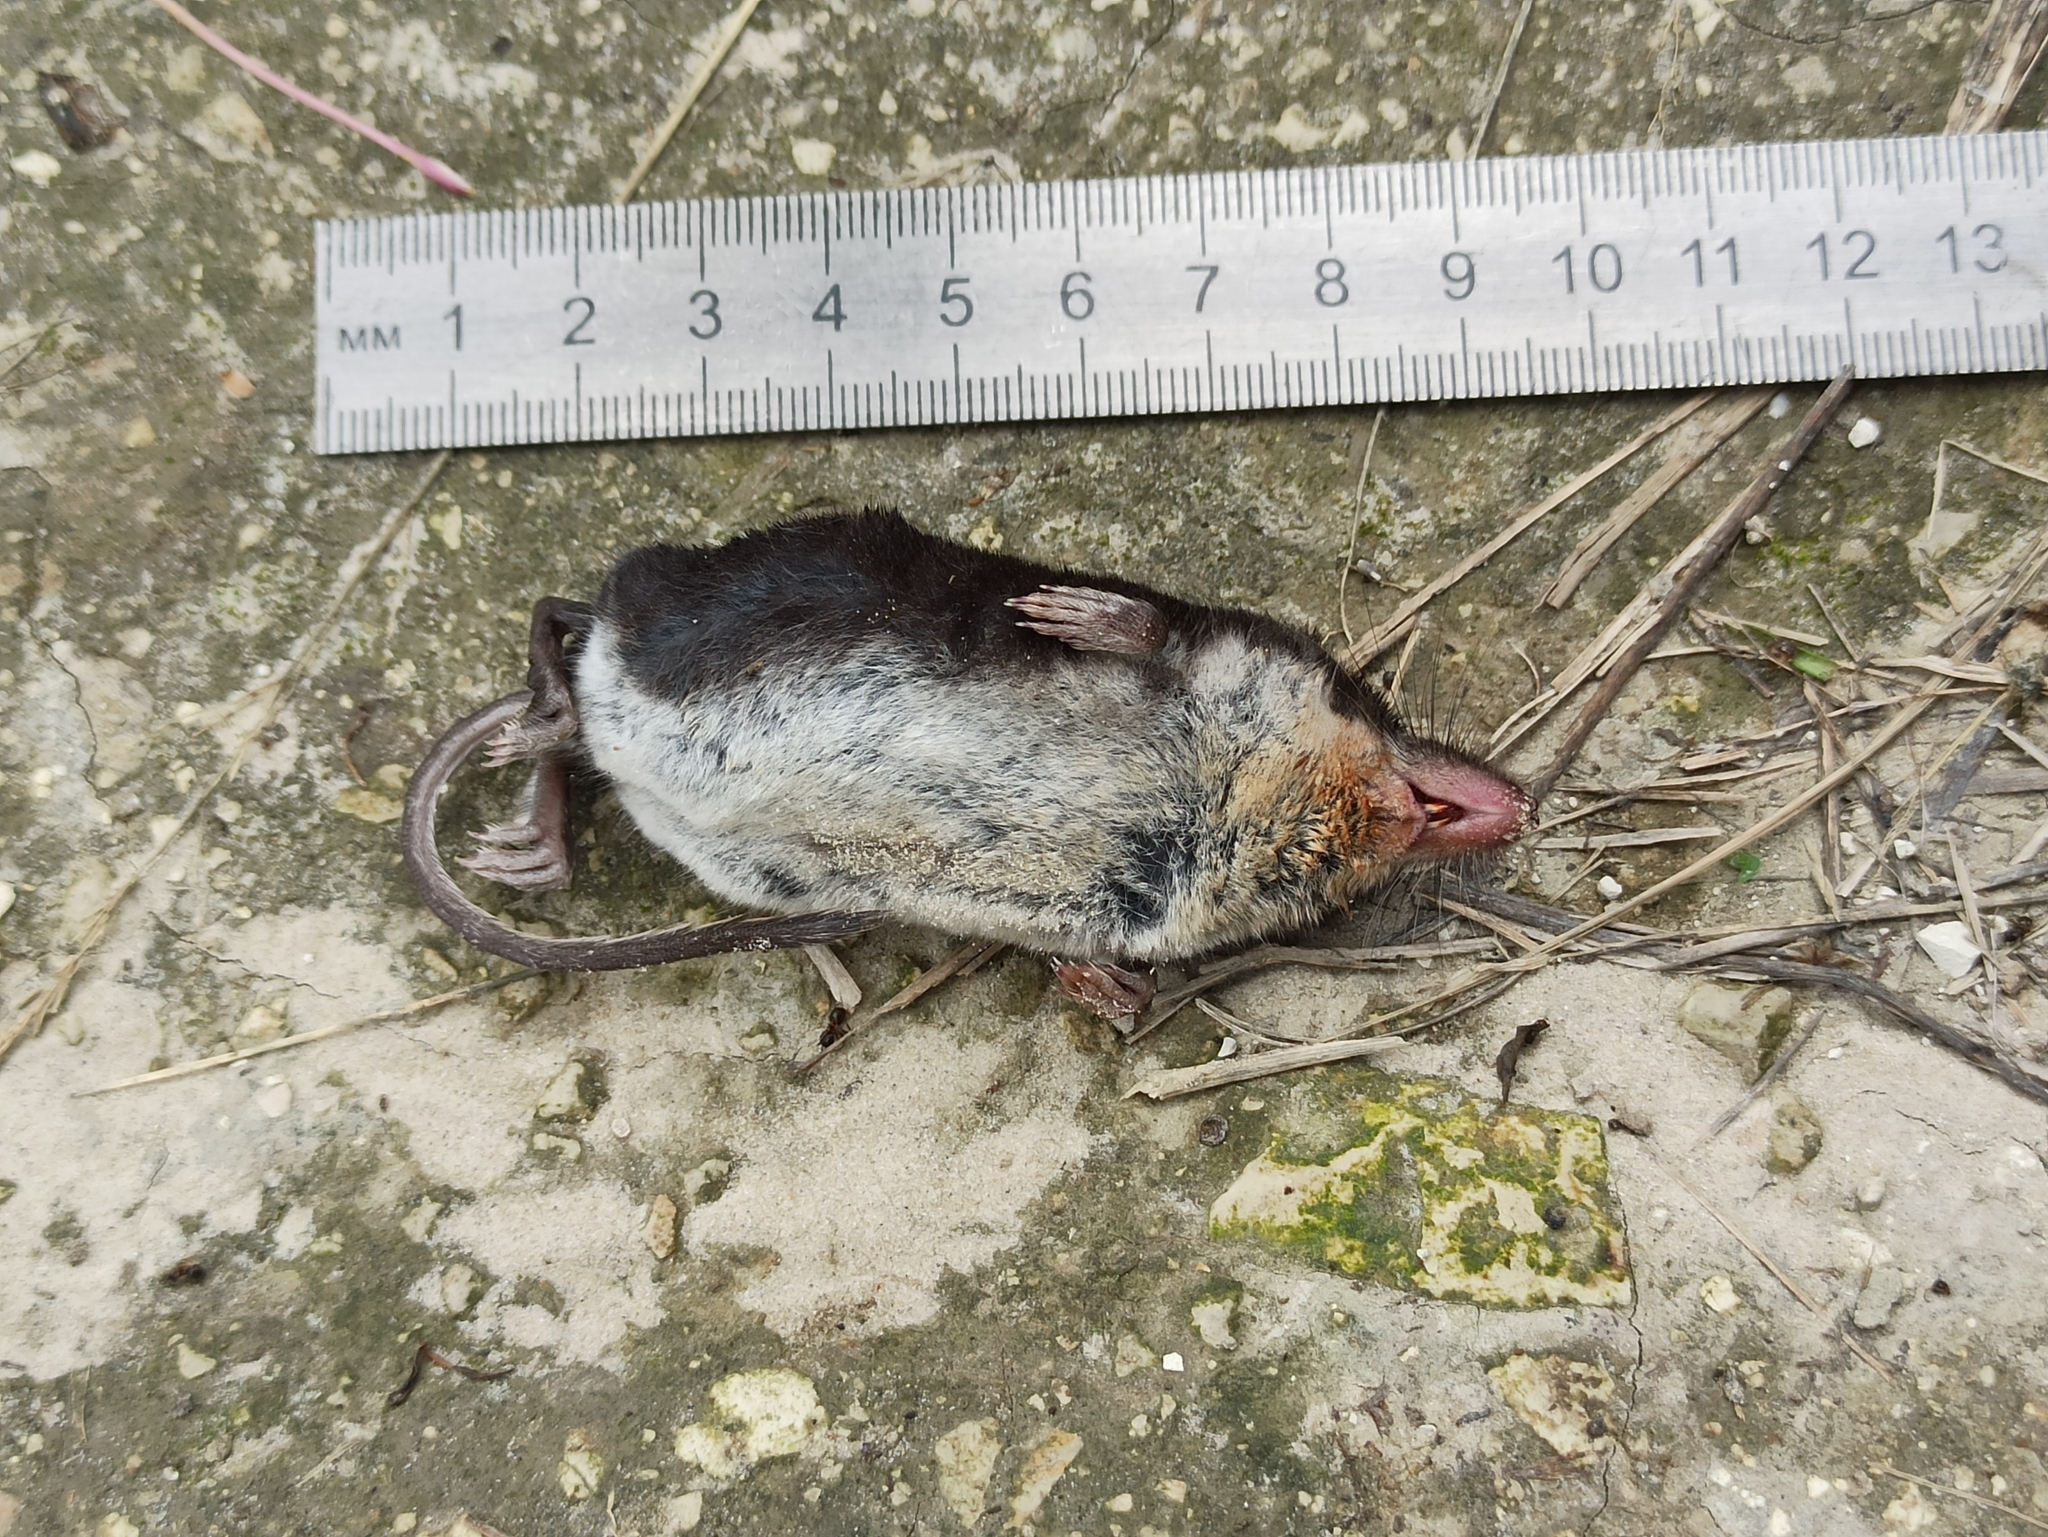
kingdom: Animalia
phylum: Chordata
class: Mammalia
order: Soricomorpha
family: Soricidae
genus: Neomys
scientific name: Neomys fodiens
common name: Eurasian water shrew
